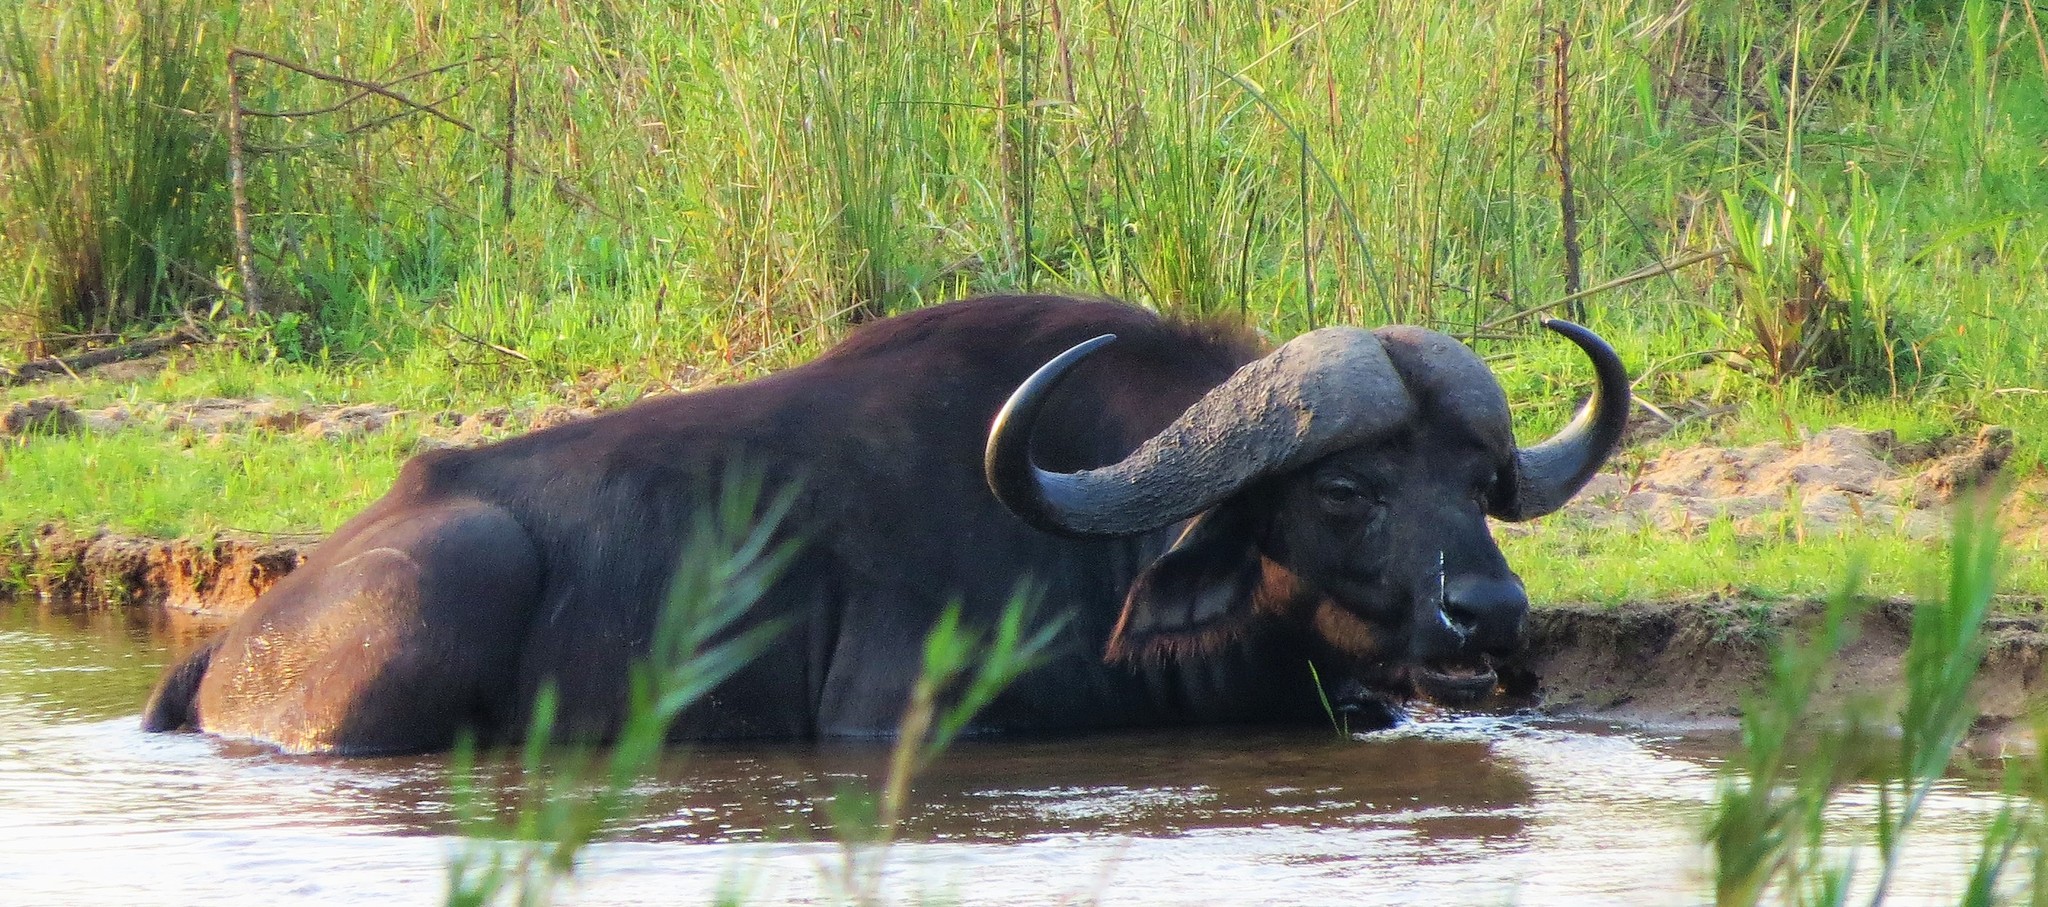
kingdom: Animalia
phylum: Chordata
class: Mammalia
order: Artiodactyla
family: Bovidae
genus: Syncerus
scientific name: Syncerus caffer
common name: African buffalo
